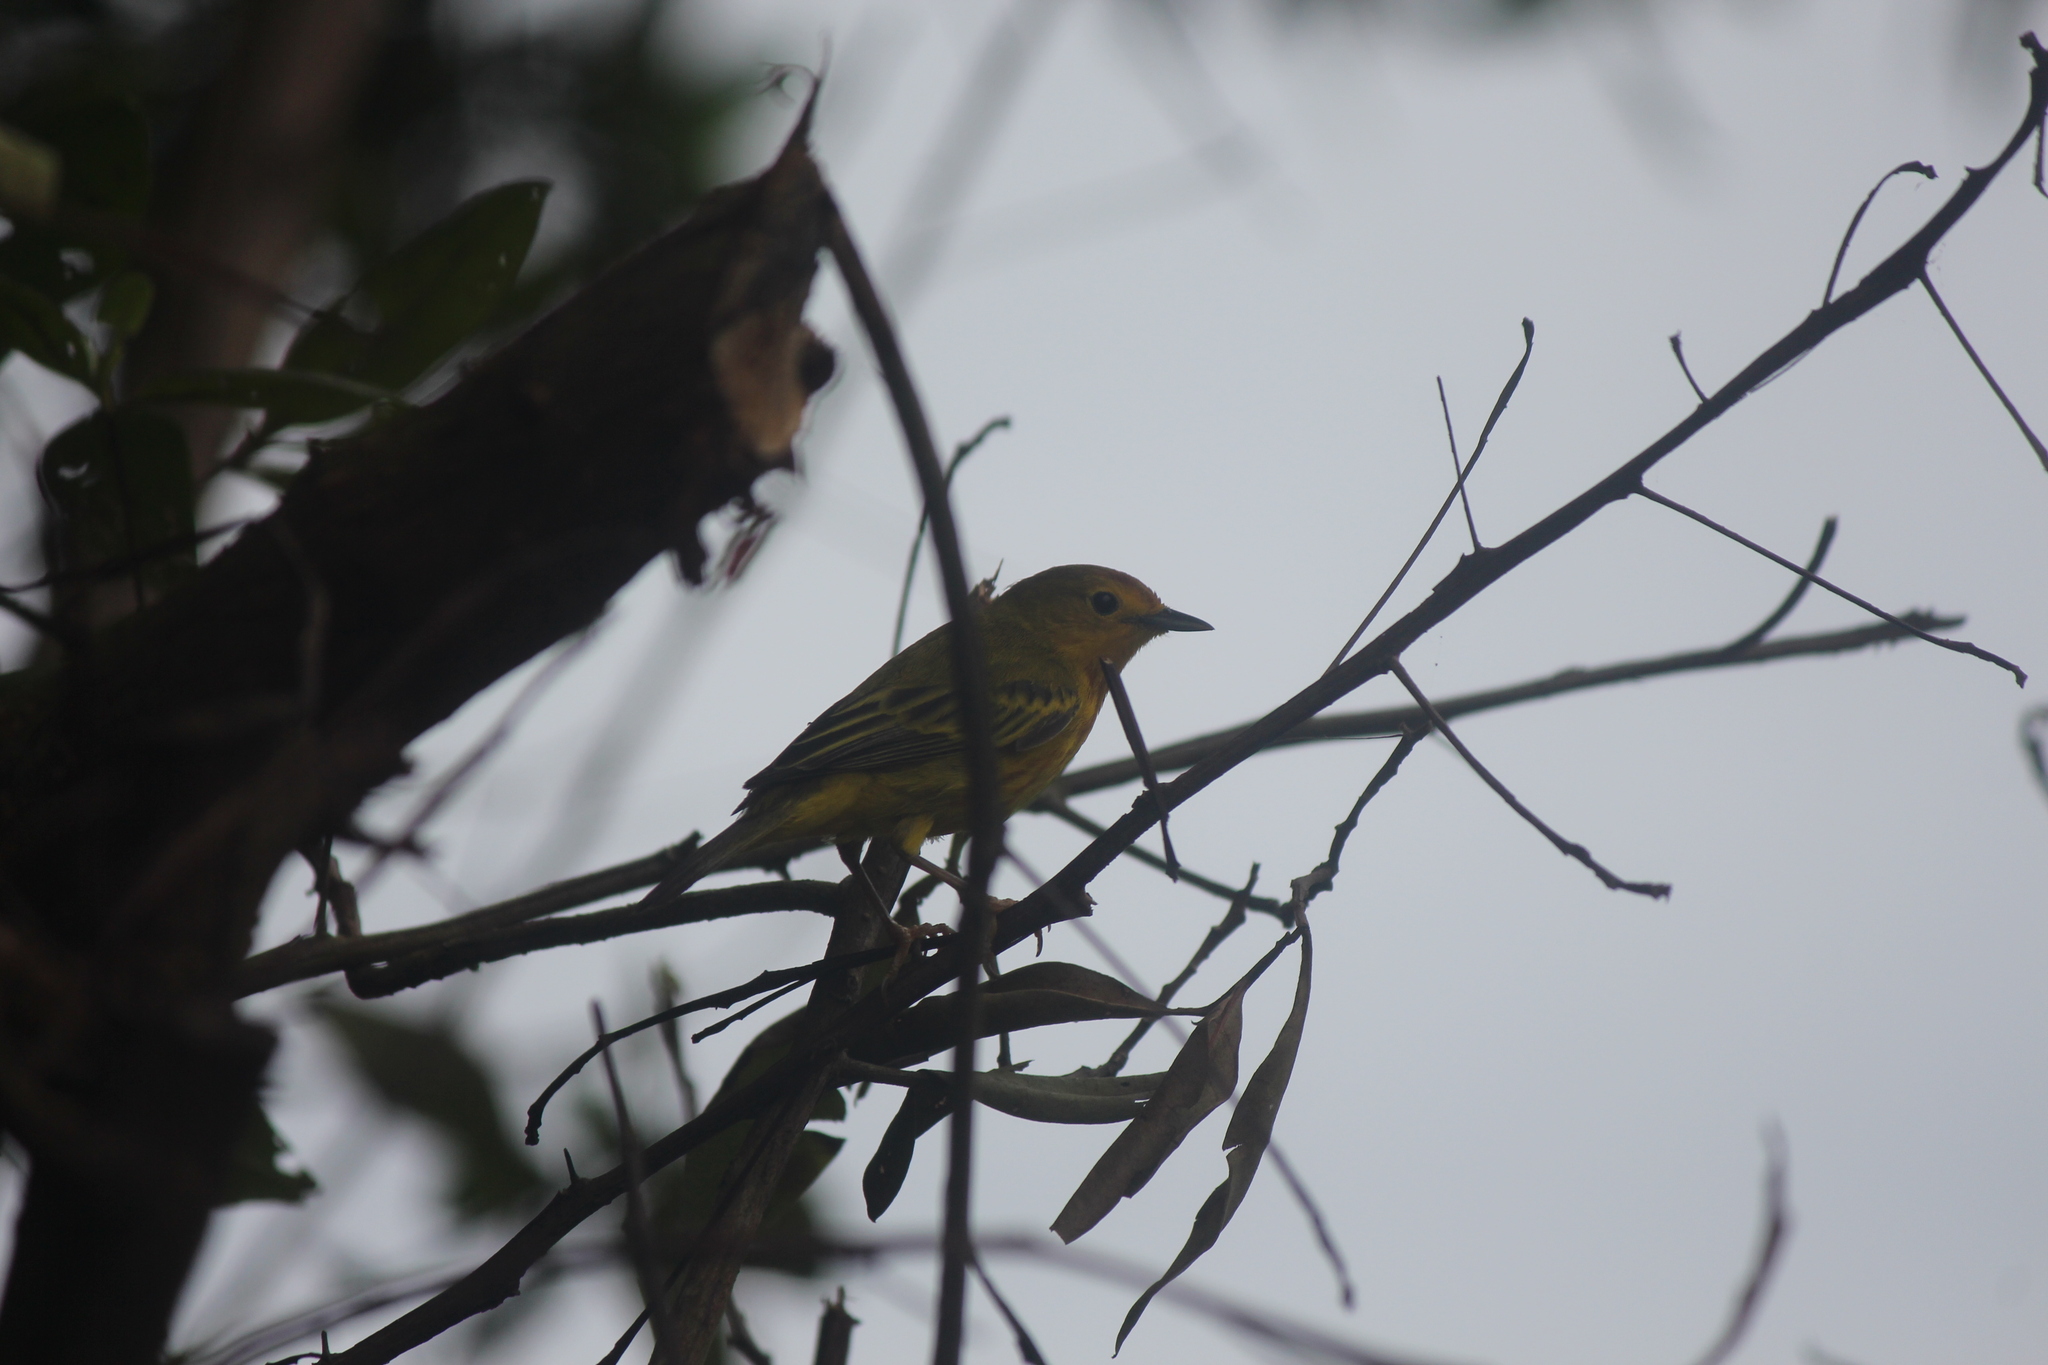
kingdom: Animalia
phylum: Chordata
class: Aves
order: Passeriformes
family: Parulidae
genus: Setophaga
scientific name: Setophaga petechia
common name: Yellow warbler
